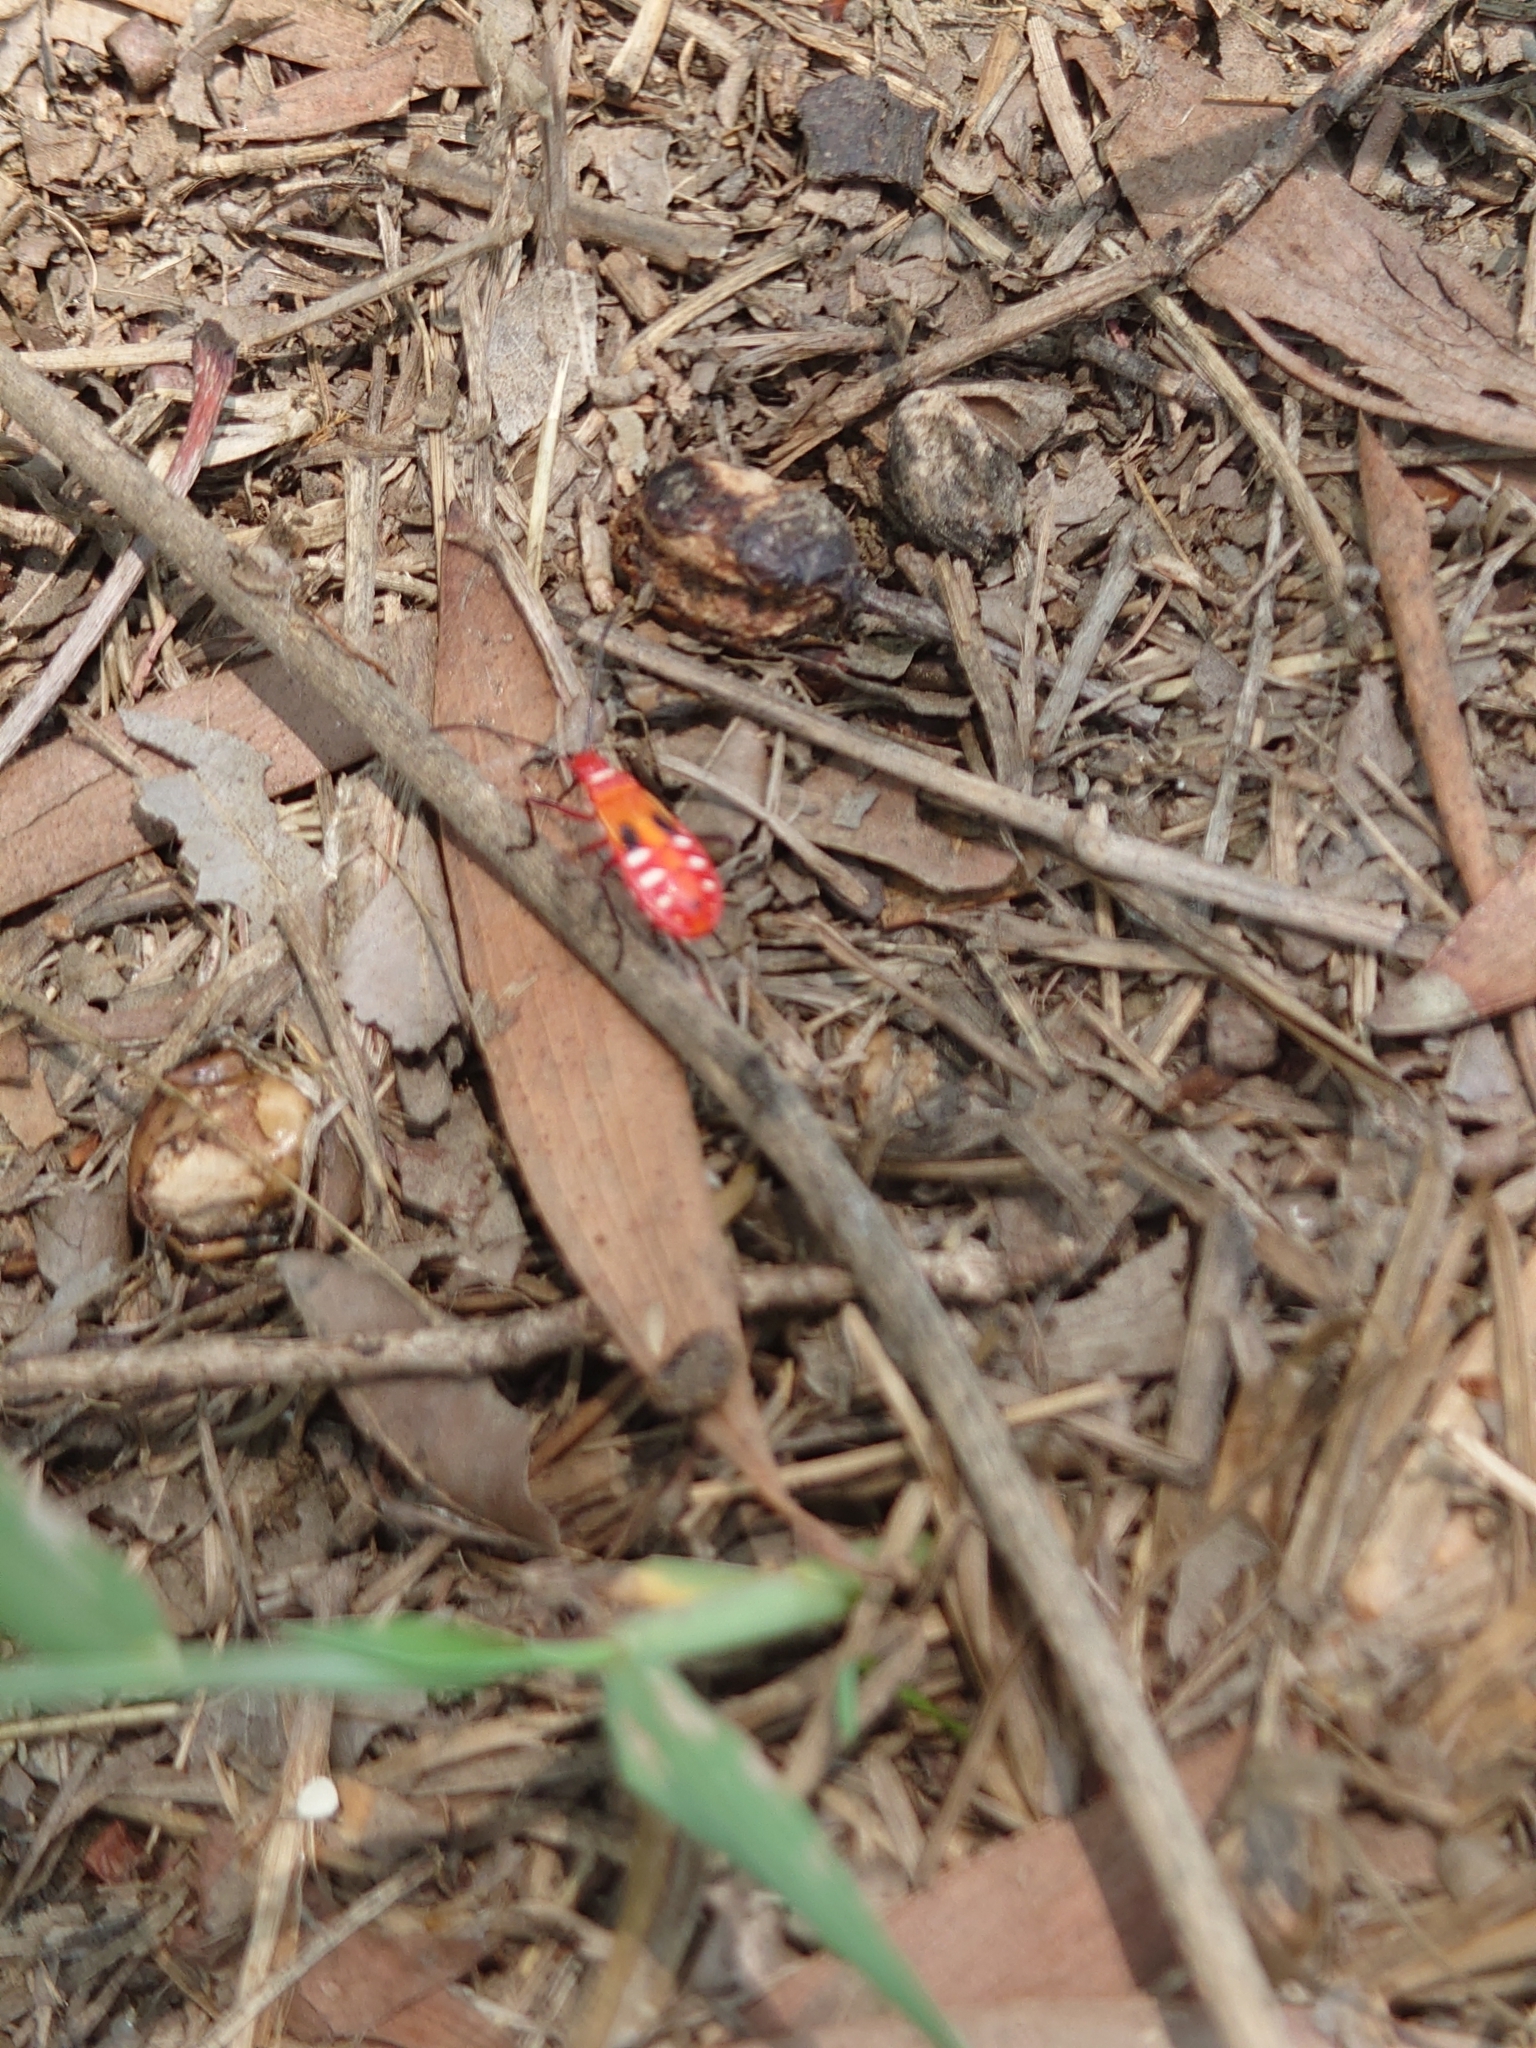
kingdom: Animalia
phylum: Arthropoda
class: Insecta
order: Hemiptera
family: Pyrrhocoridae
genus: Dysdercus
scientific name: Dysdercus cingulatus
